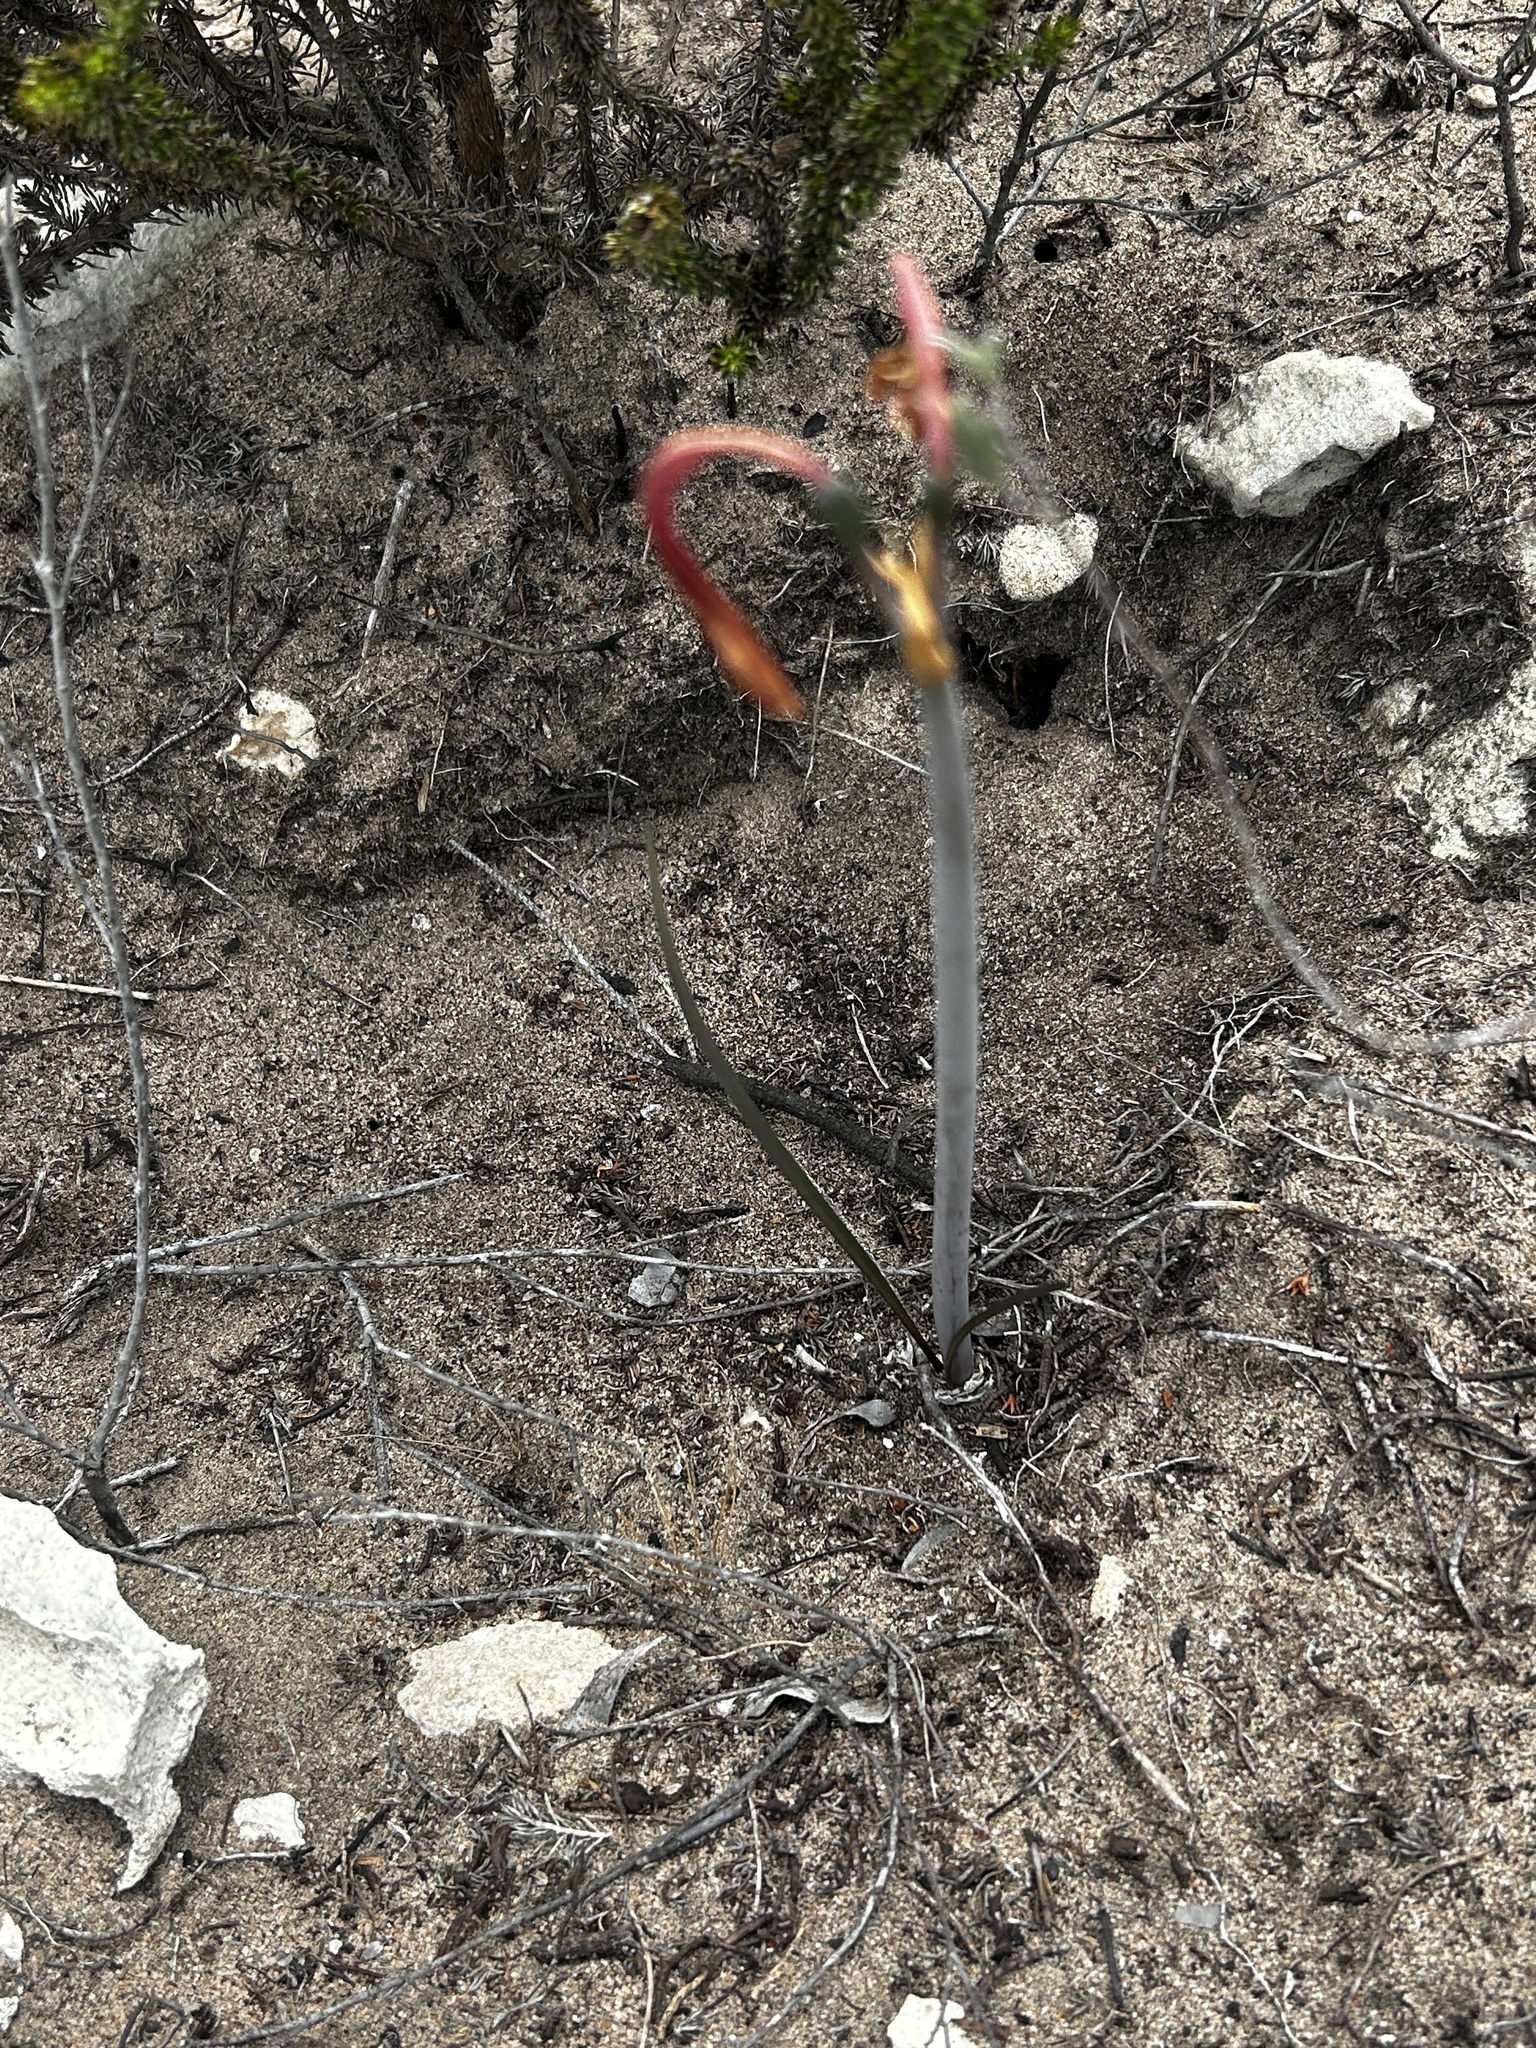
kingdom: Plantae
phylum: Tracheophyta
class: Liliopsida
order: Asparagales
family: Amaryllidaceae
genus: Cyrtanthus
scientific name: Cyrtanthus fergusoniae
